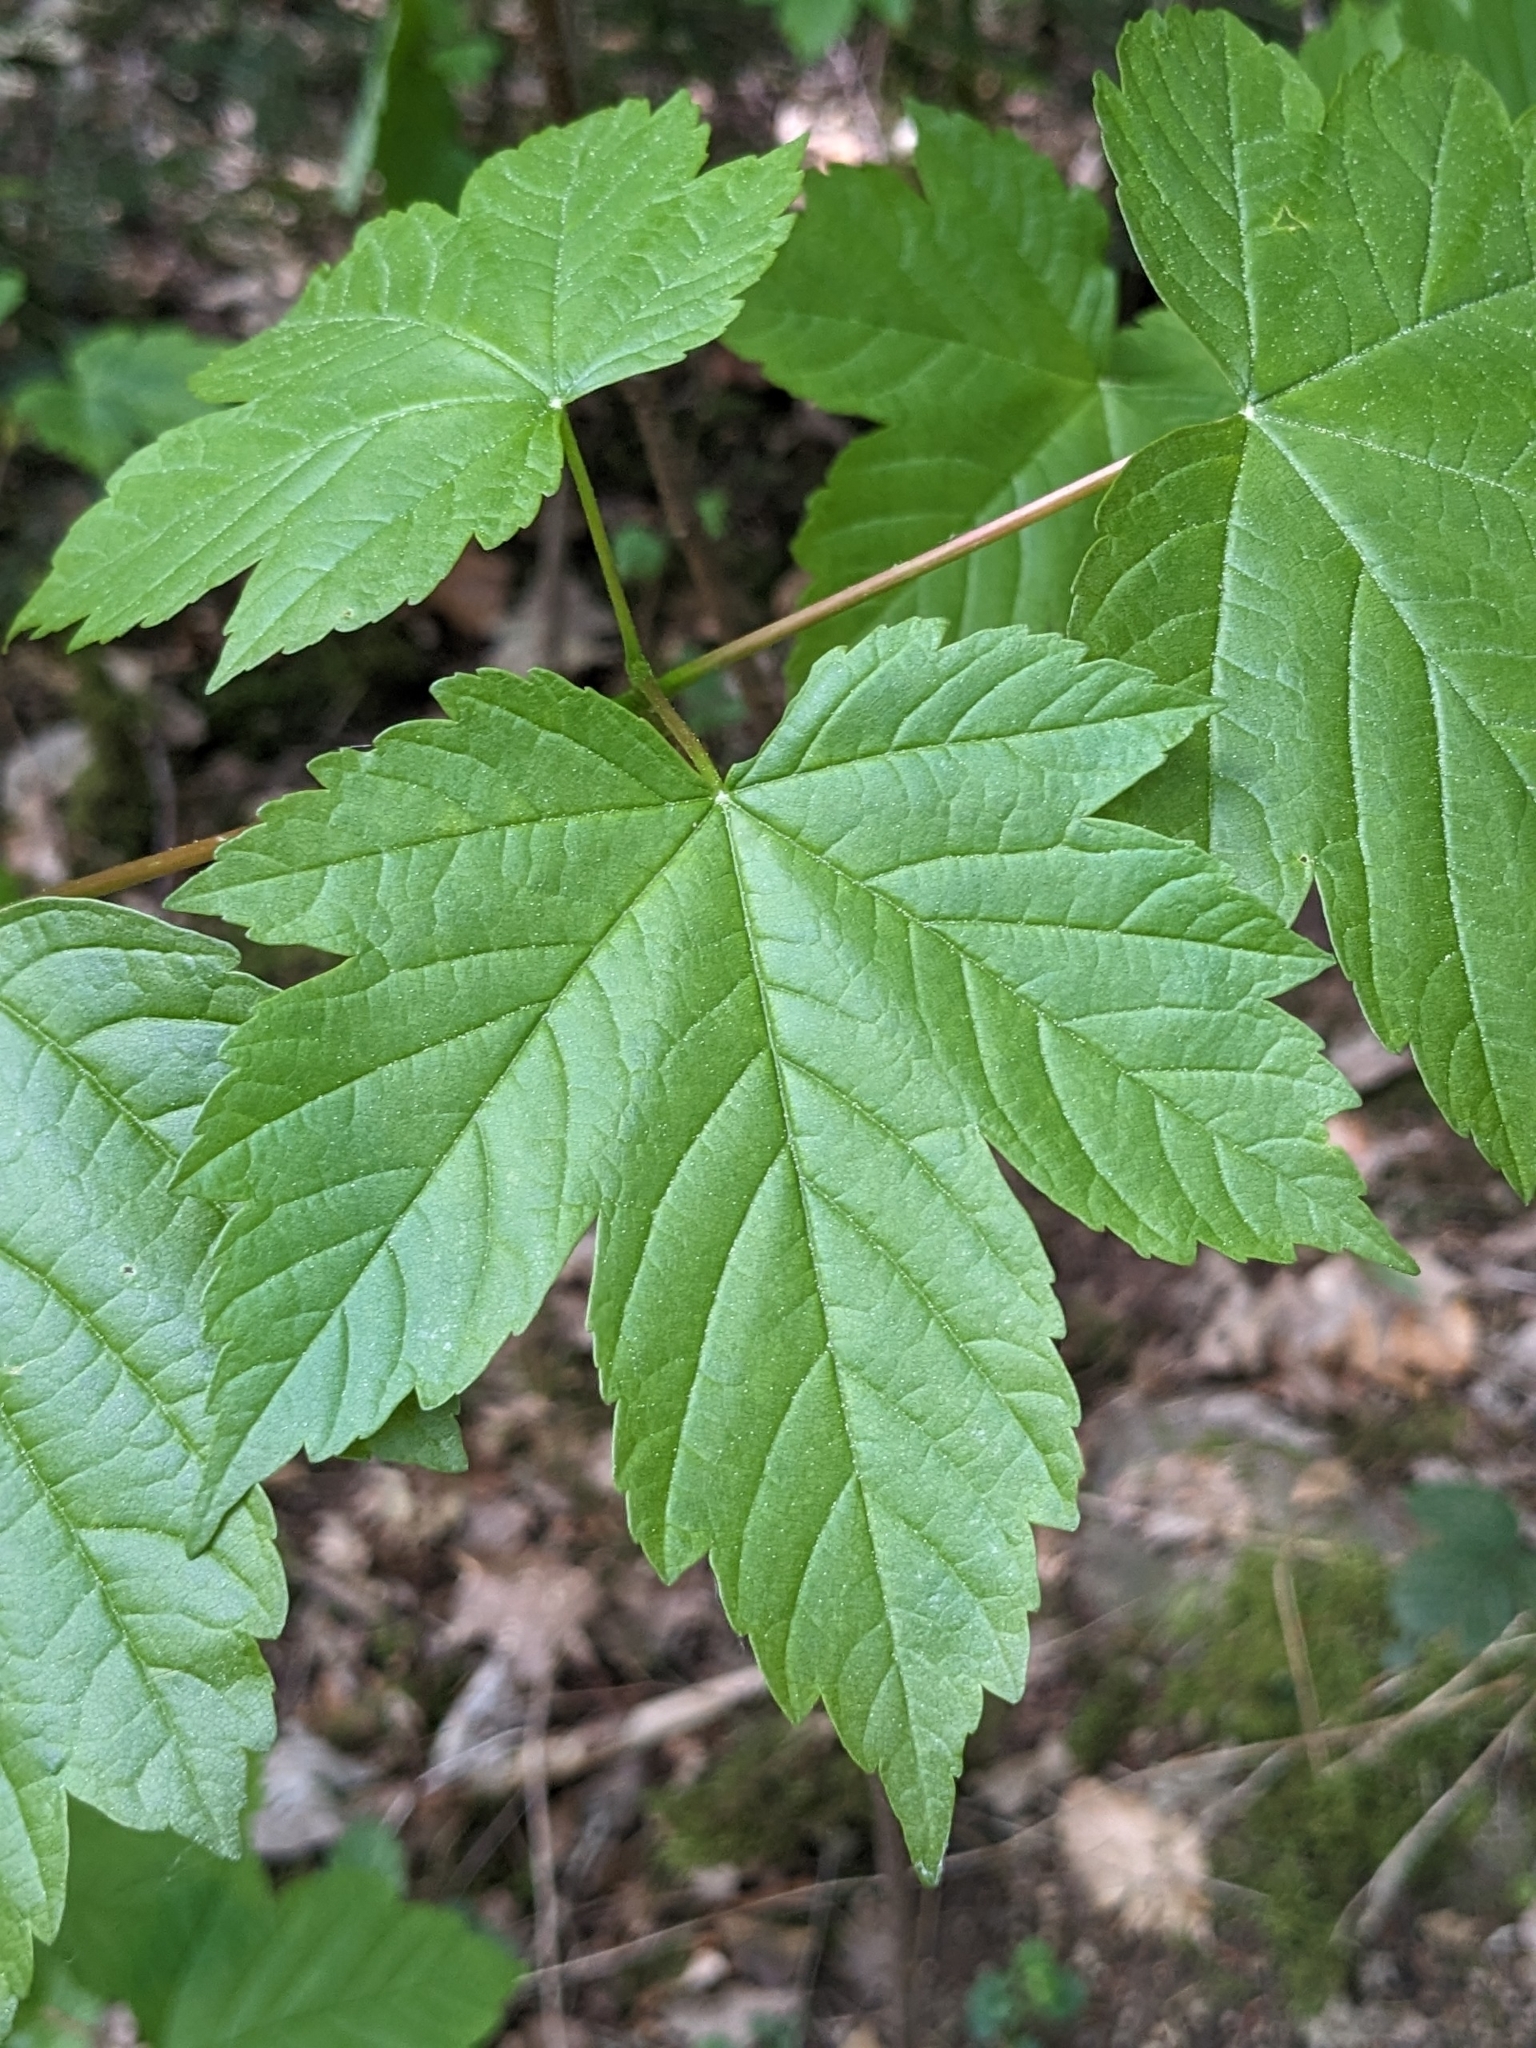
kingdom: Plantae
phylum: Tracheophyta
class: Magnoliopsida
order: Sapindales
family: Sapindaceae
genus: Acer
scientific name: Acer pseudoplatanus
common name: Sycamore
